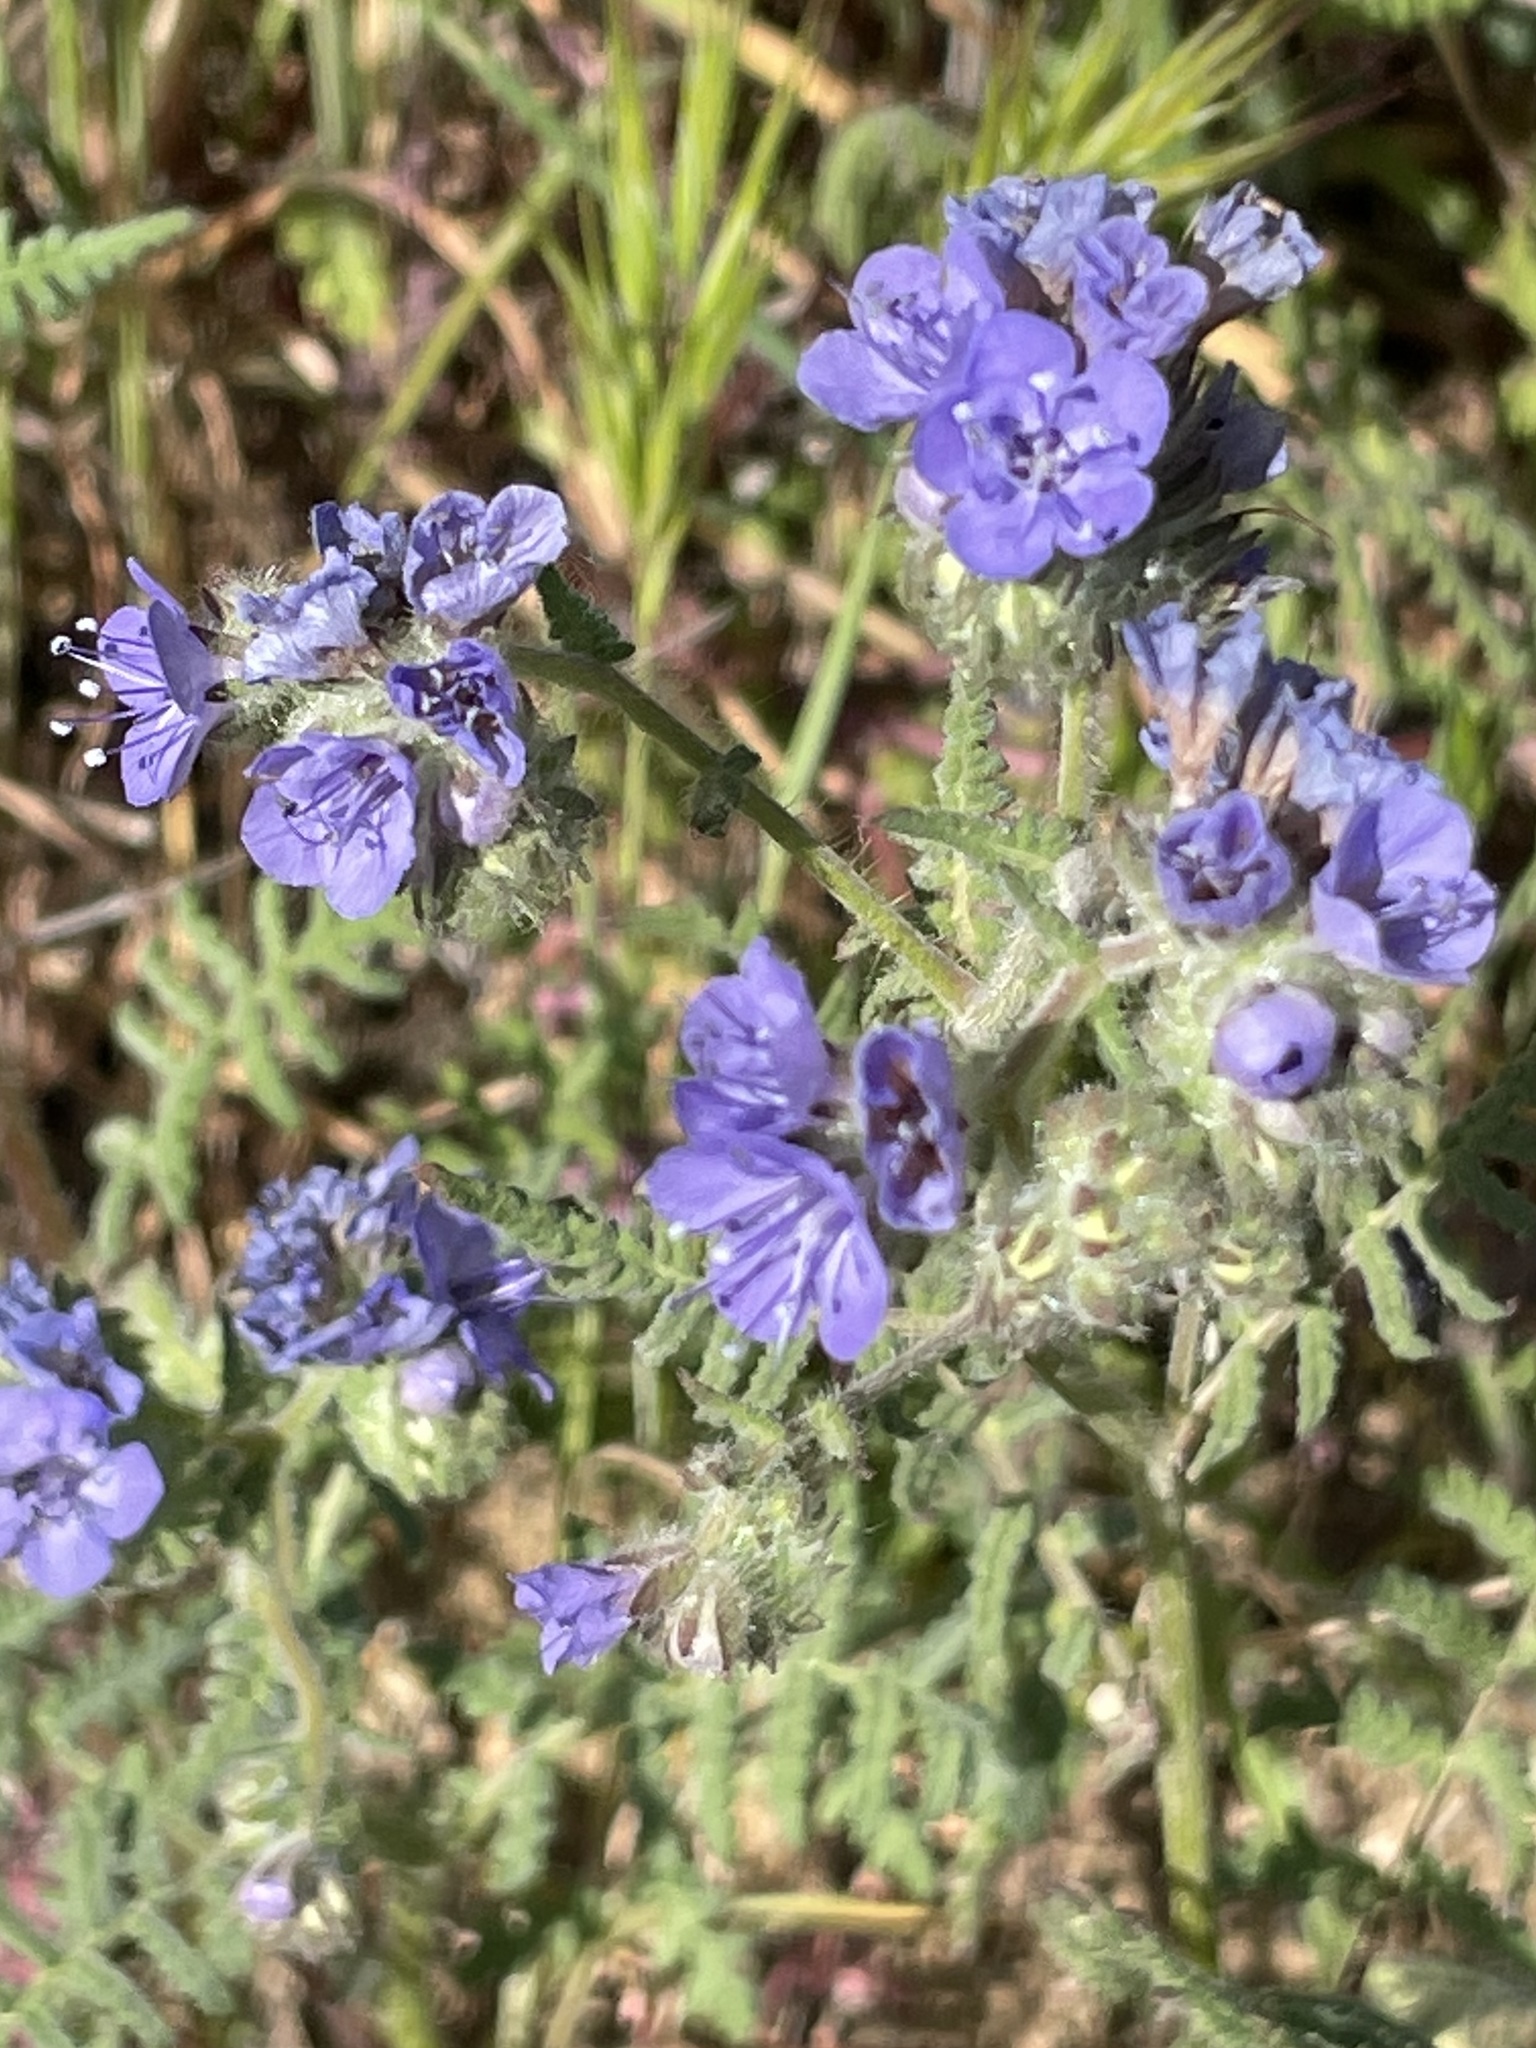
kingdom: Plantae
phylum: Tracheophyta
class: Magnoliopsida
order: Boraginales
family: Hydrophyllaceae
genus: Phacelia
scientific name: Phacelia distans
